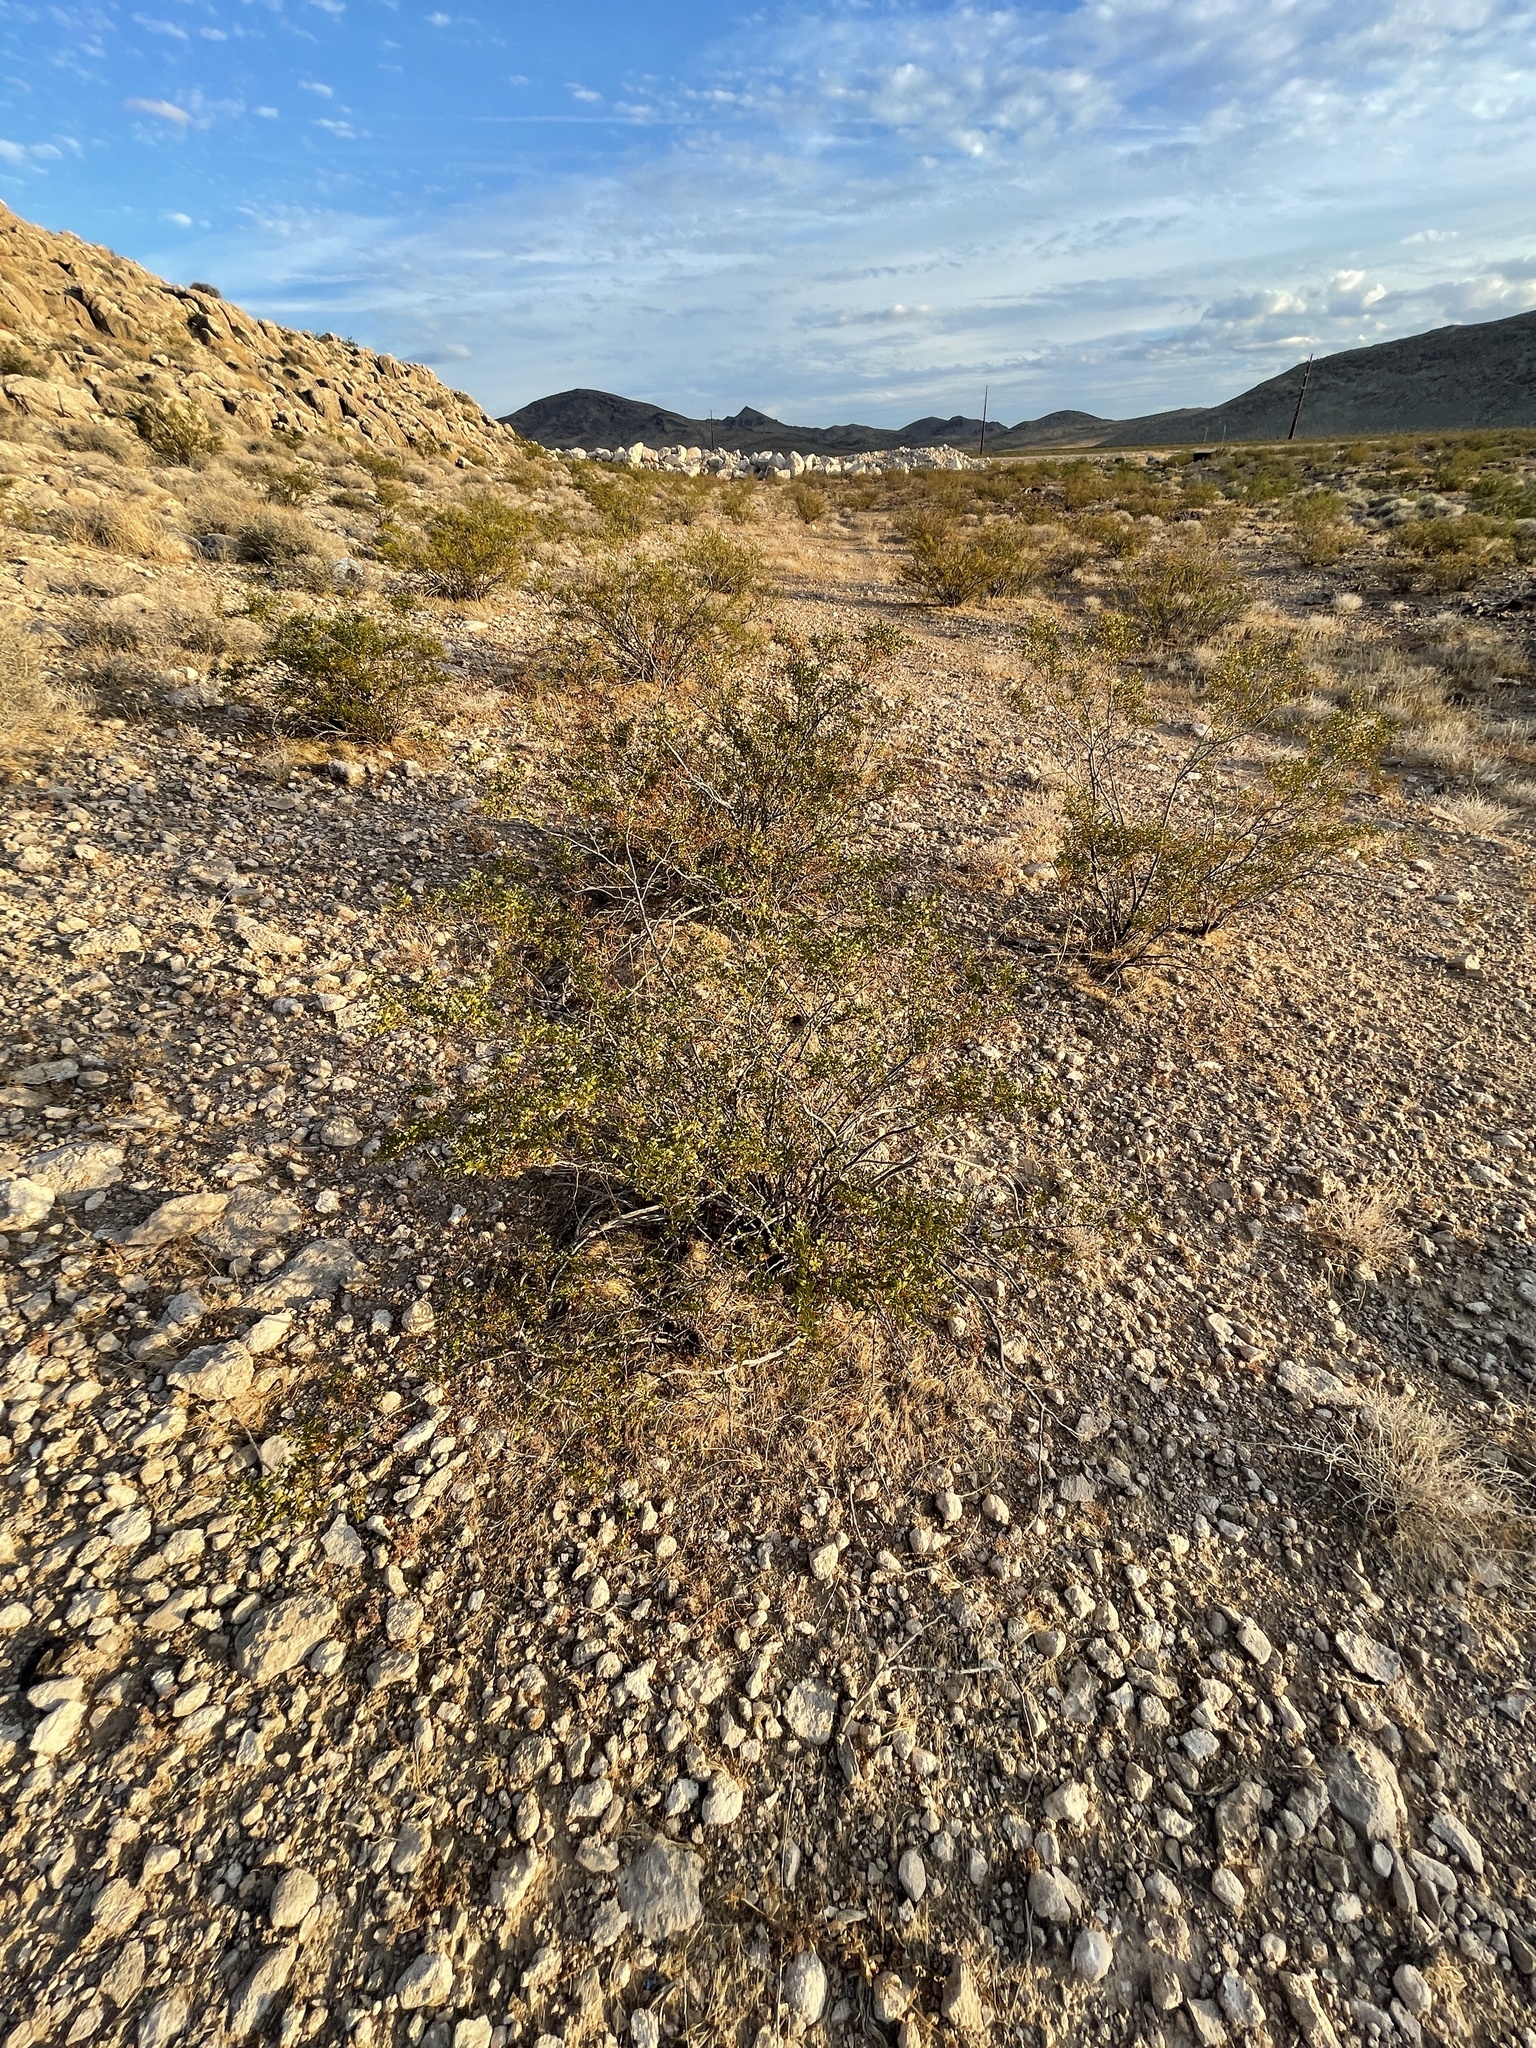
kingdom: Plantae
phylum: Tracheophyta
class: Magnoliopsida
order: Zygophyllales
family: Zygophyllaceae
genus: Larrea
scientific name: Larrea tridentata
